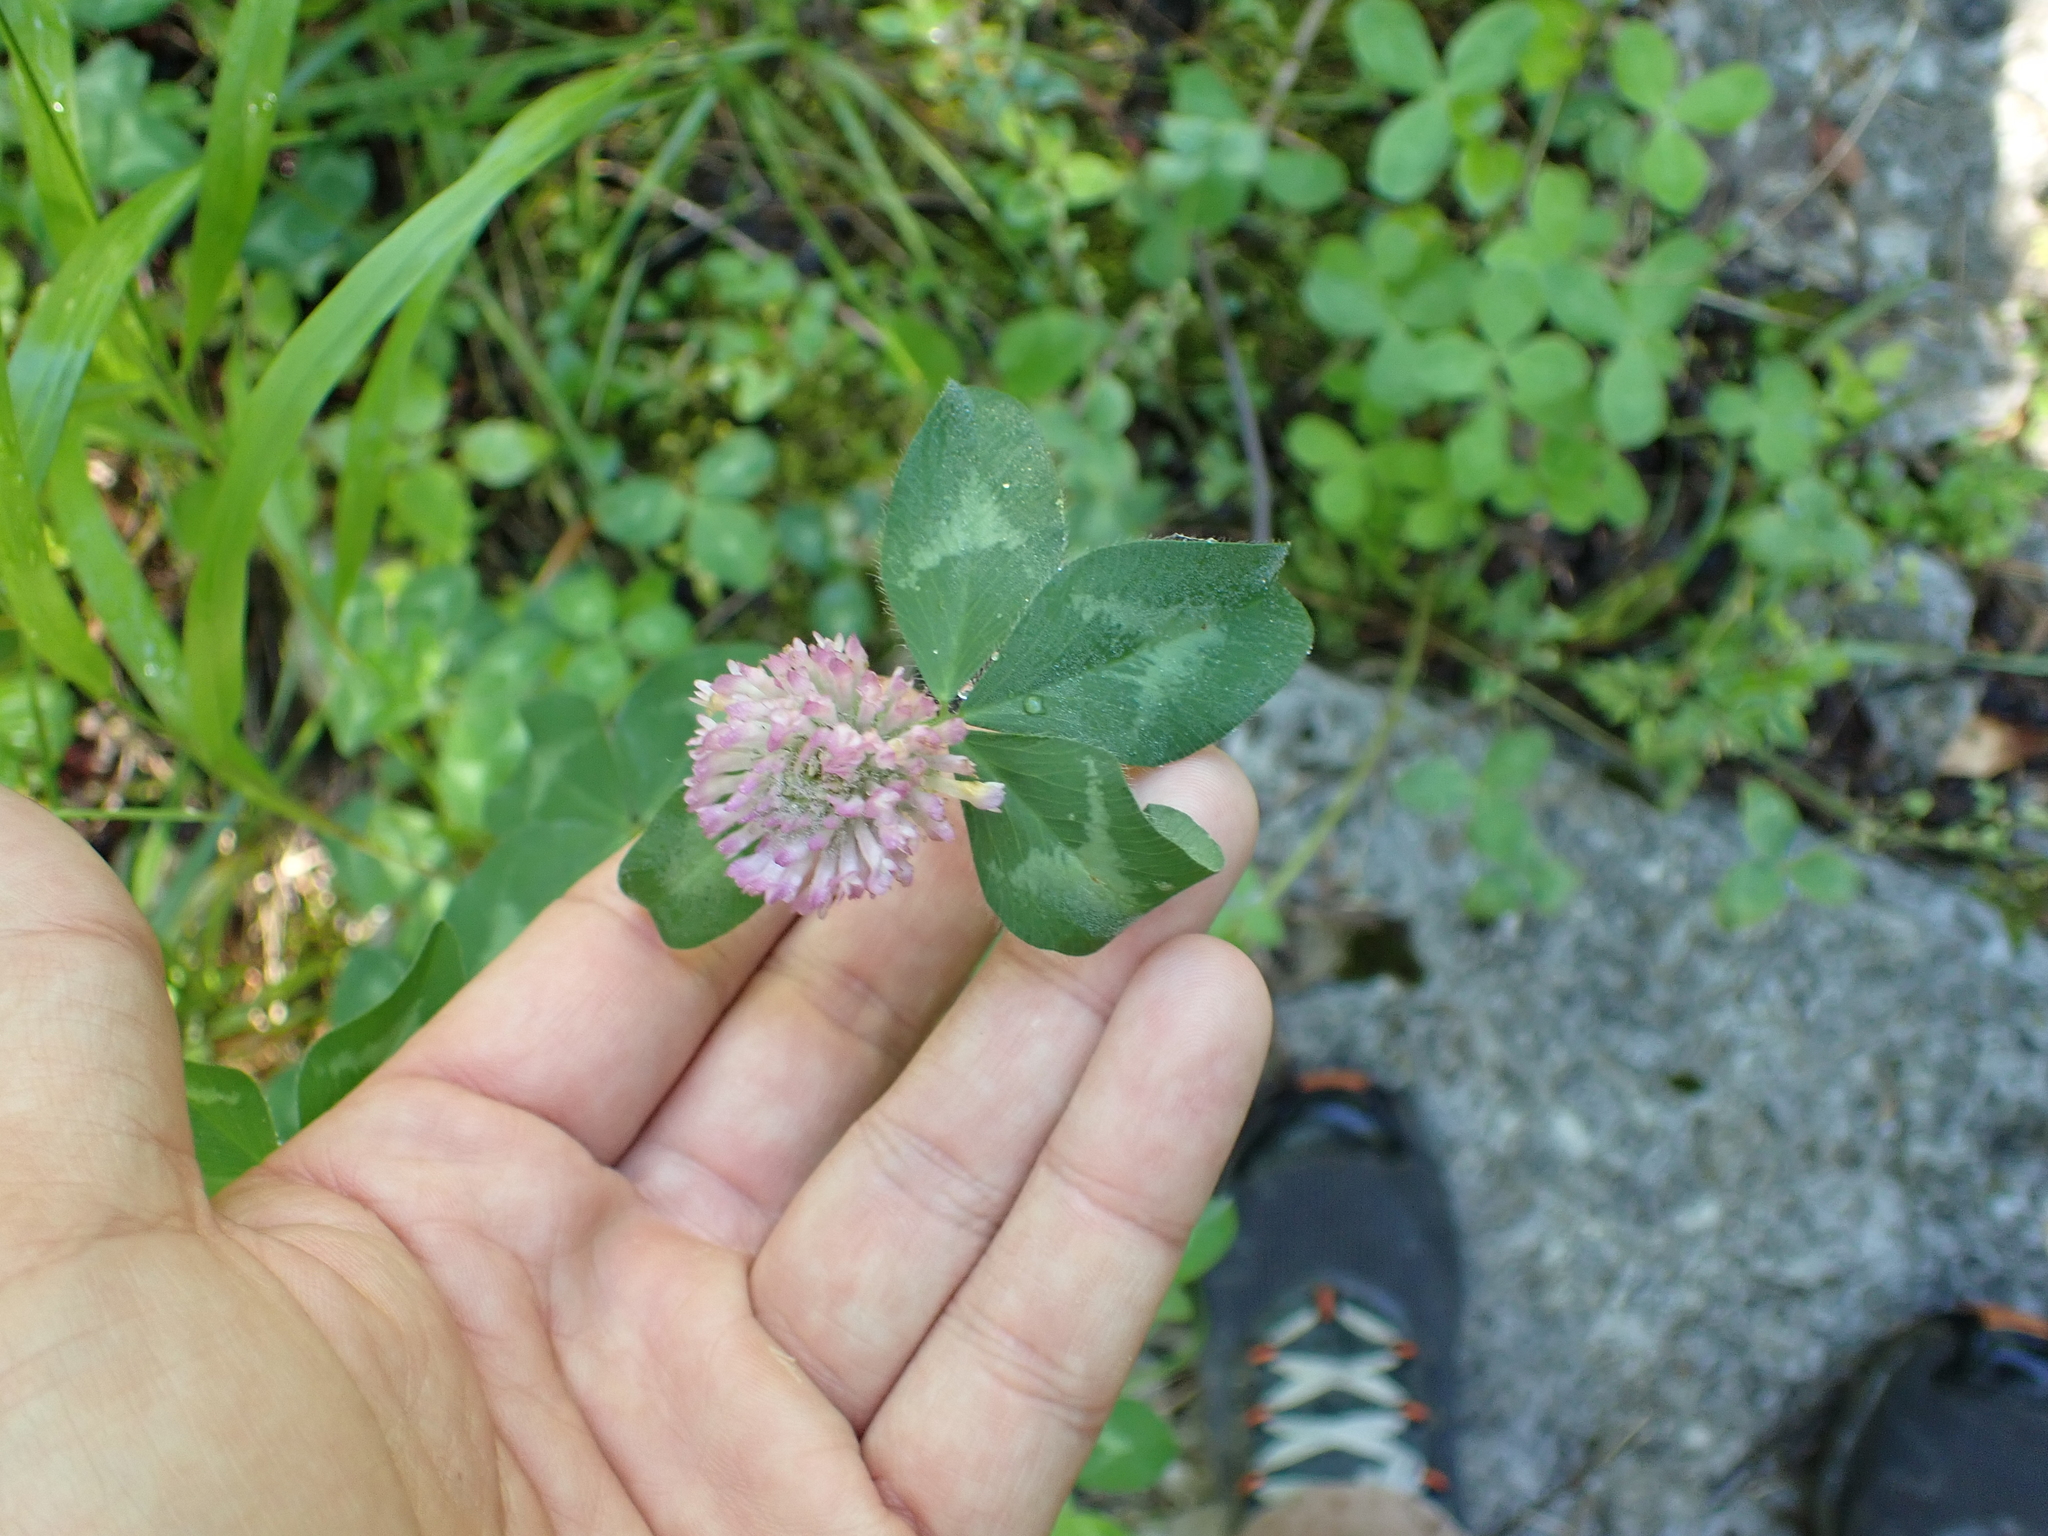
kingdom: Plantae
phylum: Tracheophyta
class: Magnoliopsida
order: Fabales
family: Fabaceae
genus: Trifolium
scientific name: Trifolium pratense
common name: Red clover
